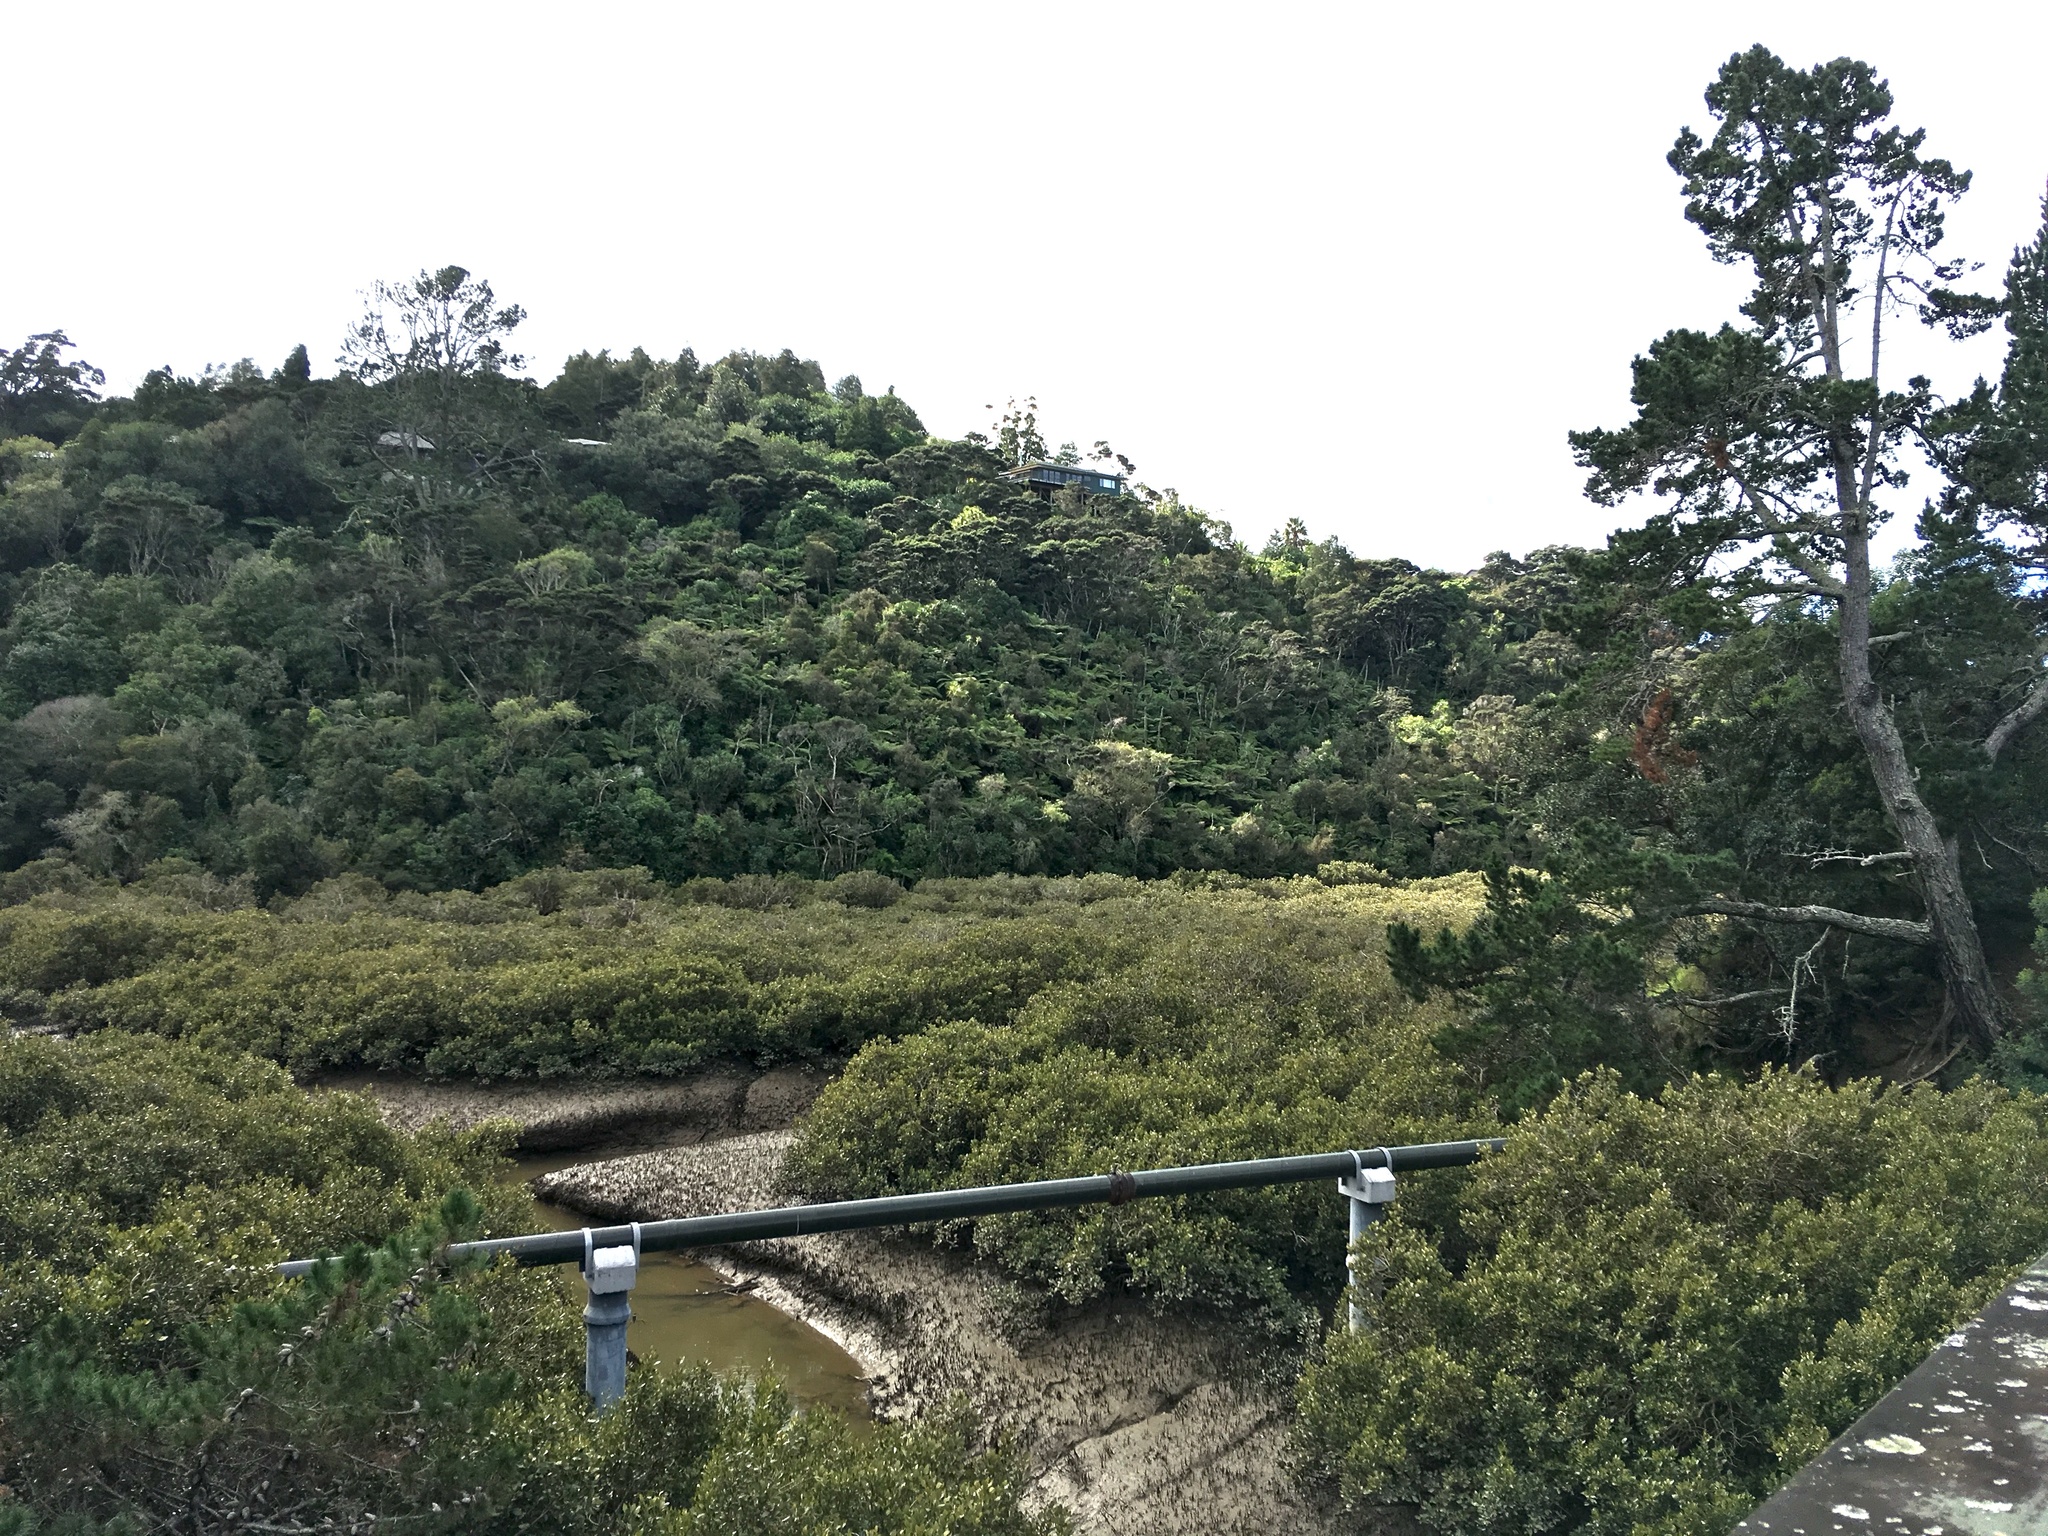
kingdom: Plantae
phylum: Tracheophyta
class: Pinopsida
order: Pinales
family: Pinaceae
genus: Pinus
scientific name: Pinus radiata
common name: Monterey pine
